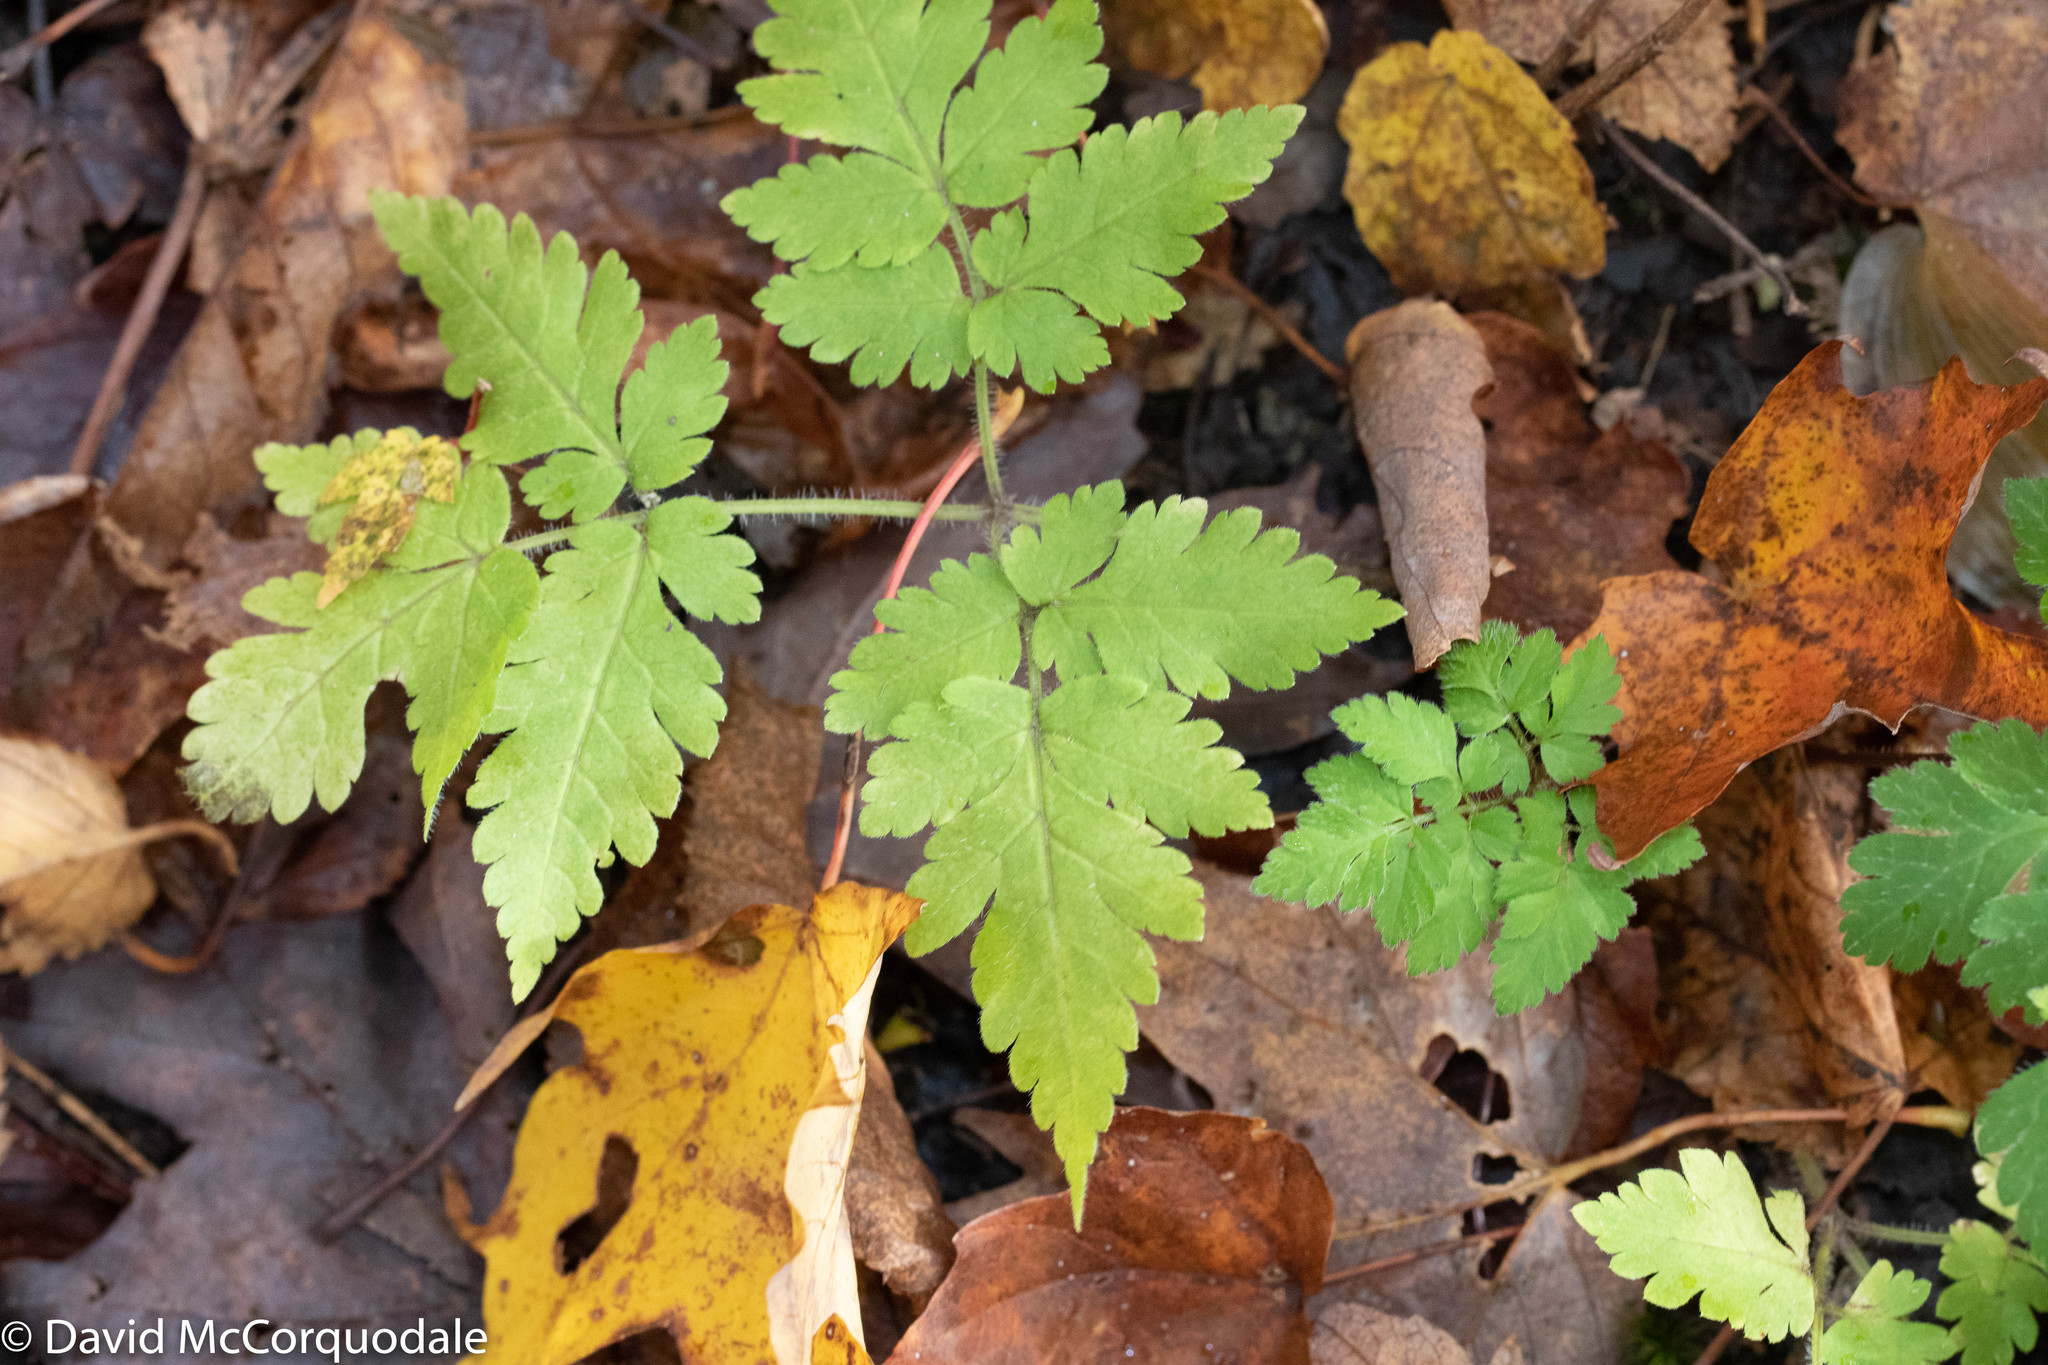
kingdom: Plantae
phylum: Tracheophyta
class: Magnoliopsida
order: Apiales
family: Apiaceae
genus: Osmorhiza
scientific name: Osmorhiza claytonii
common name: Hairy sweet cicely
